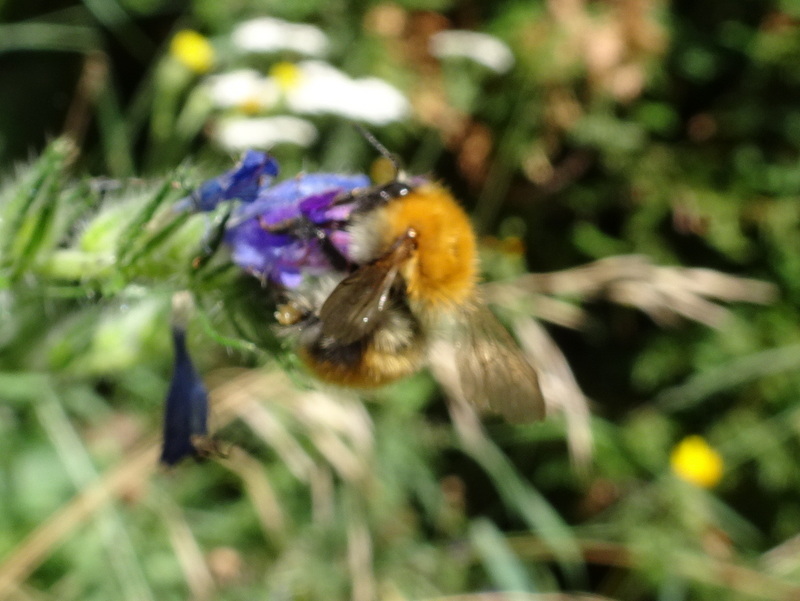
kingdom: Animalia
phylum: Arthropoda
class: Insecta
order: Hymenoptera
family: Apidae
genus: Bombus
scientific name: Bombus pascuorum
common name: Common carder bee
